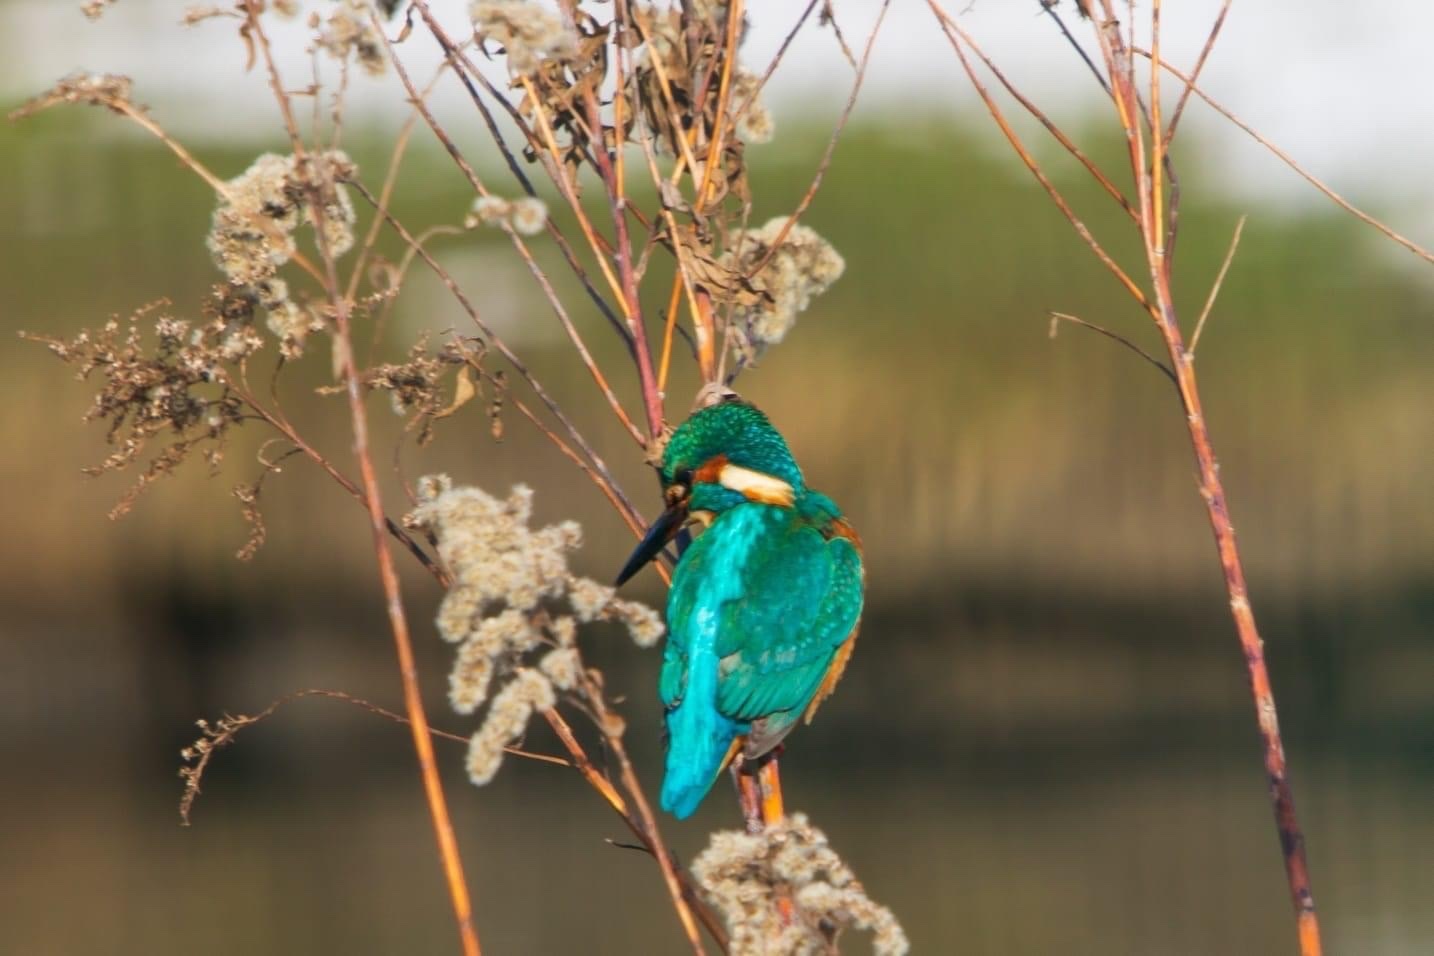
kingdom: Animalia
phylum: Chordata
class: Aves
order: Coraciiformes
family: Alcedinidae
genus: Alcedo
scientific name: Alcedo atthis
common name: Common kingfisher
